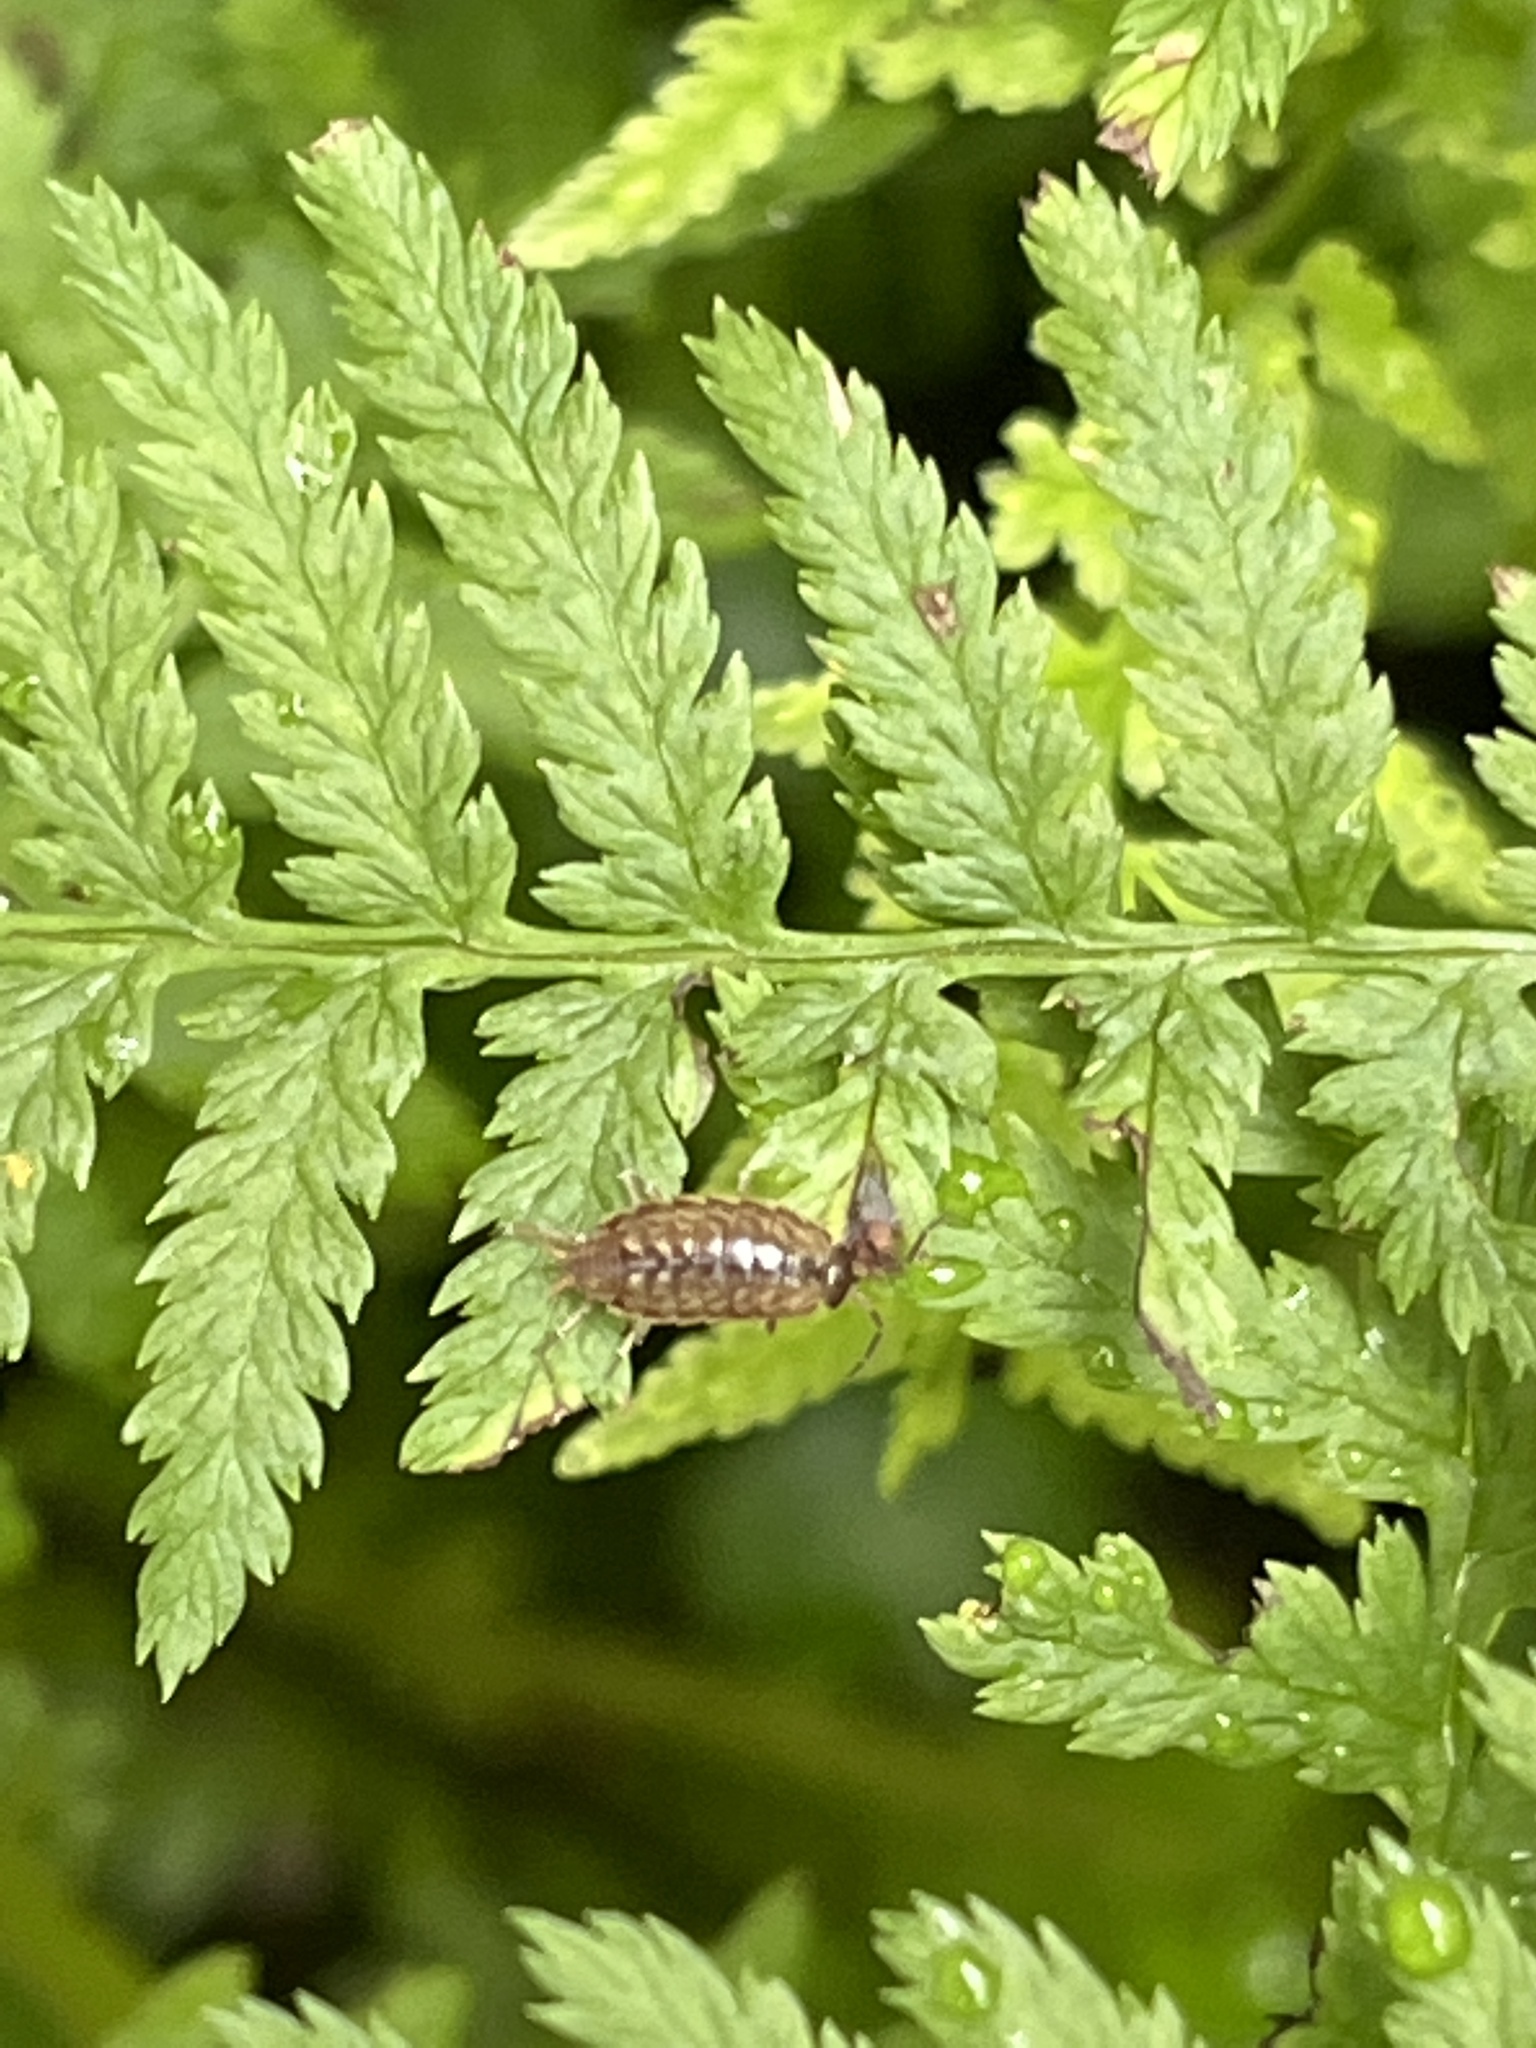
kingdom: Animalia
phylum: Arthropoda
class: Malacostraca
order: Isopoda
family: Philosciidae
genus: Philoscia
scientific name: Philoscia muscorum
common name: Common striped woodlouse
